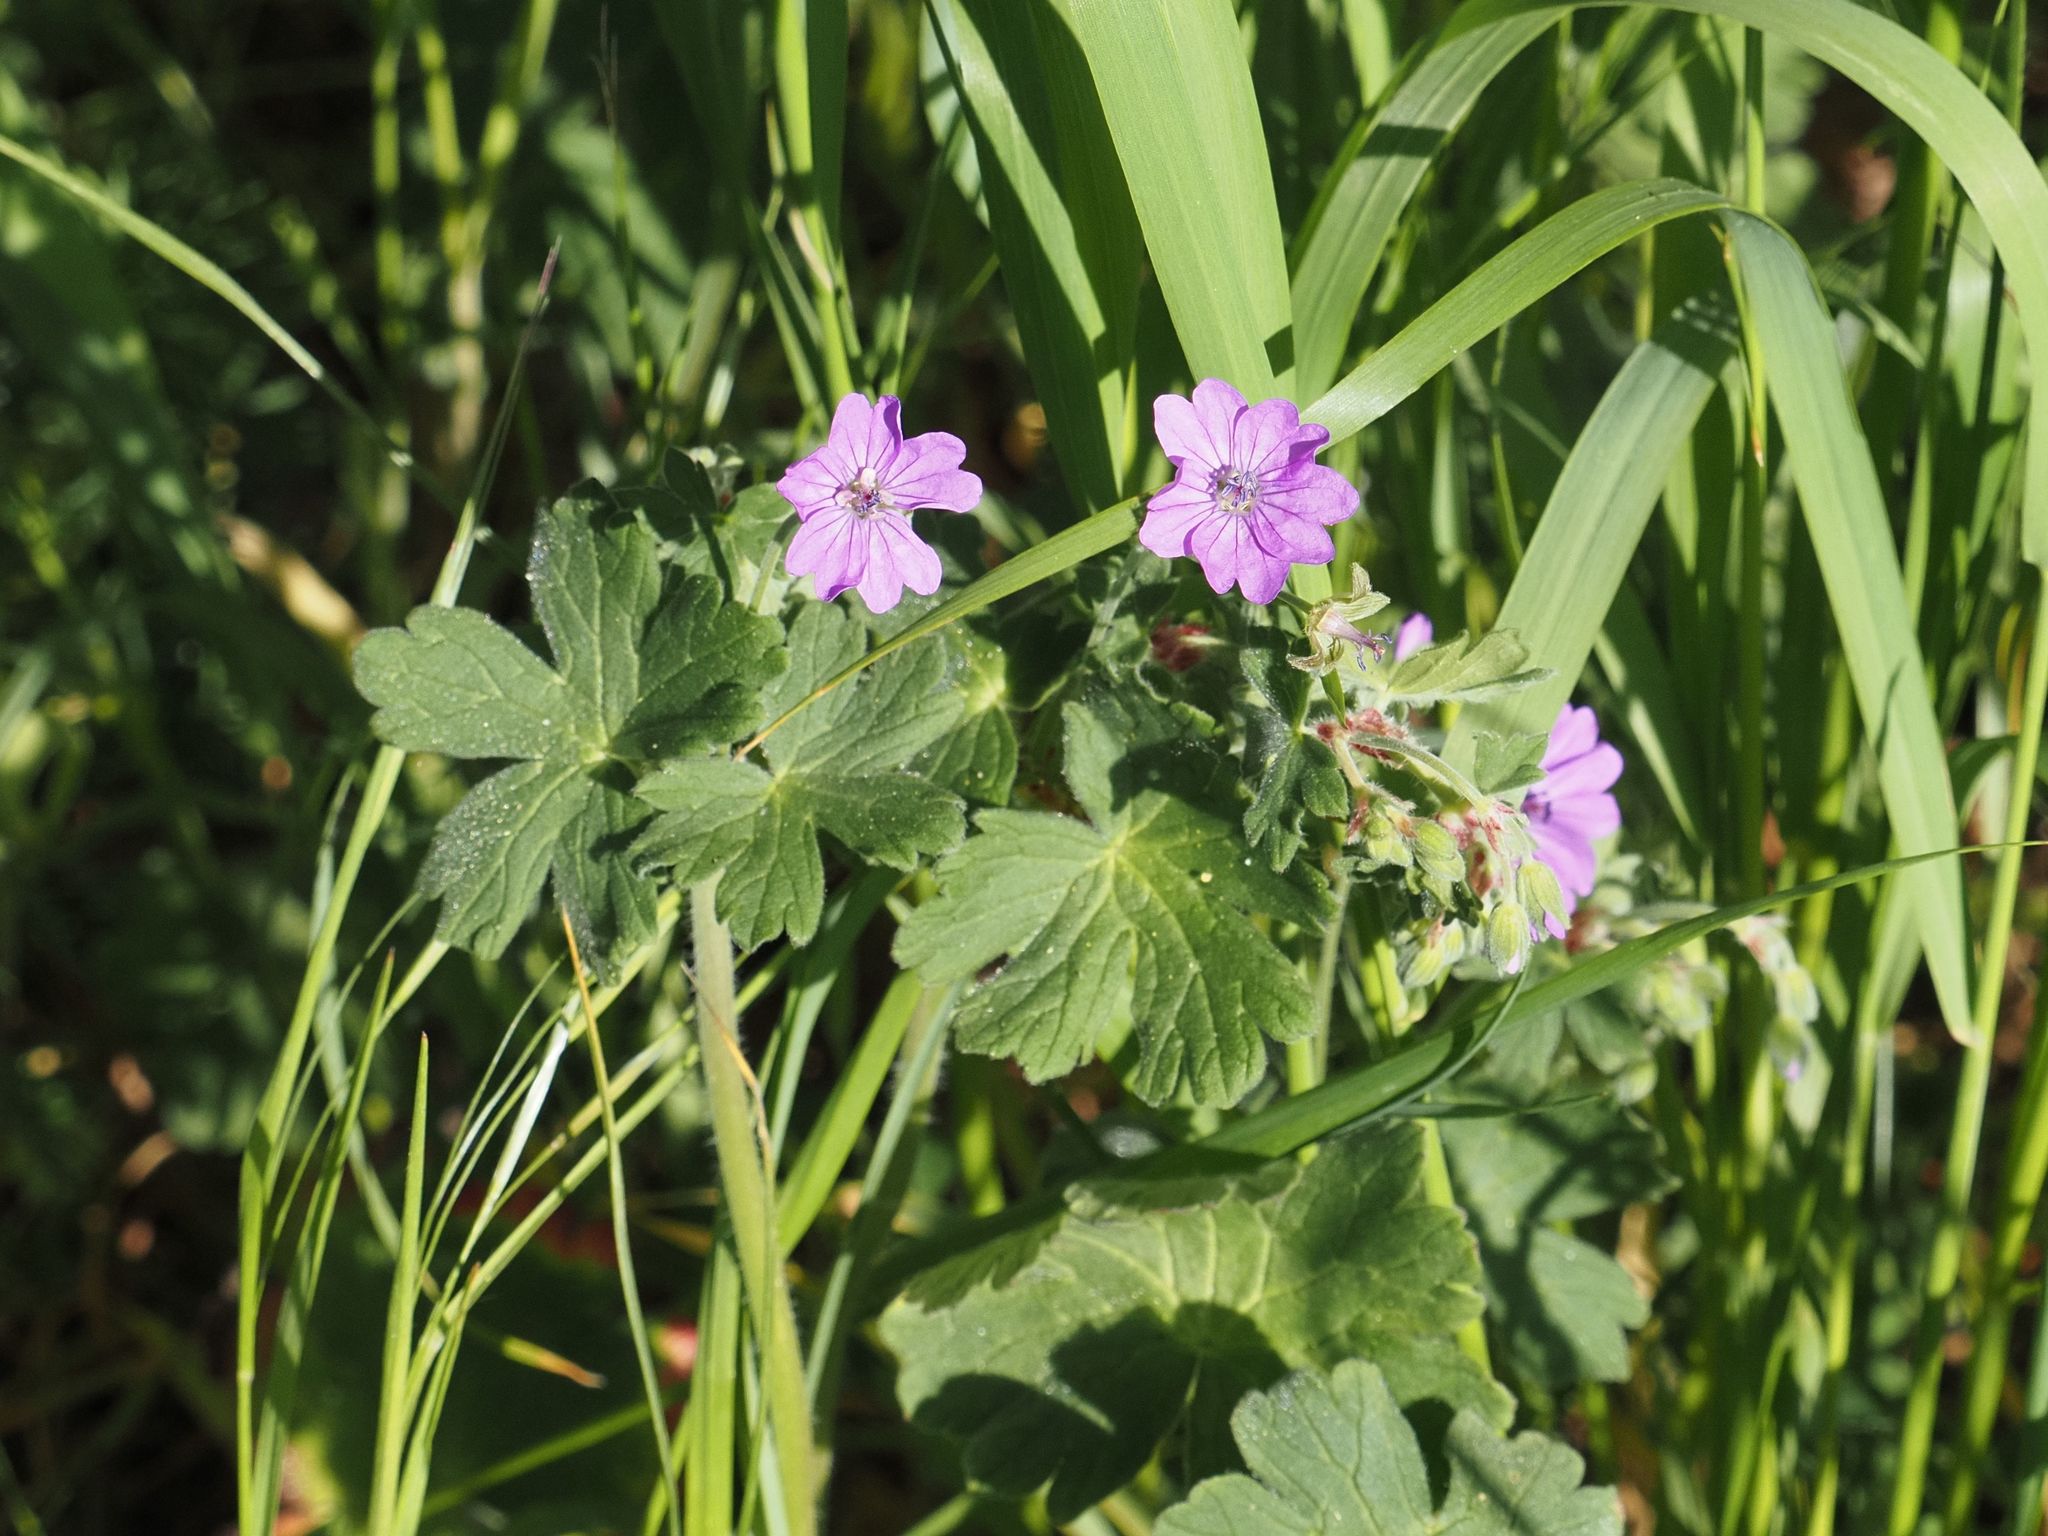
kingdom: Plantae
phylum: Tracheophyta
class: Magnoliopsida
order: Geraniales
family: Geraniaceae
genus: Geranium
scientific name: Geranium pyrenaicum
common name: Hedgerow crane's-bill
